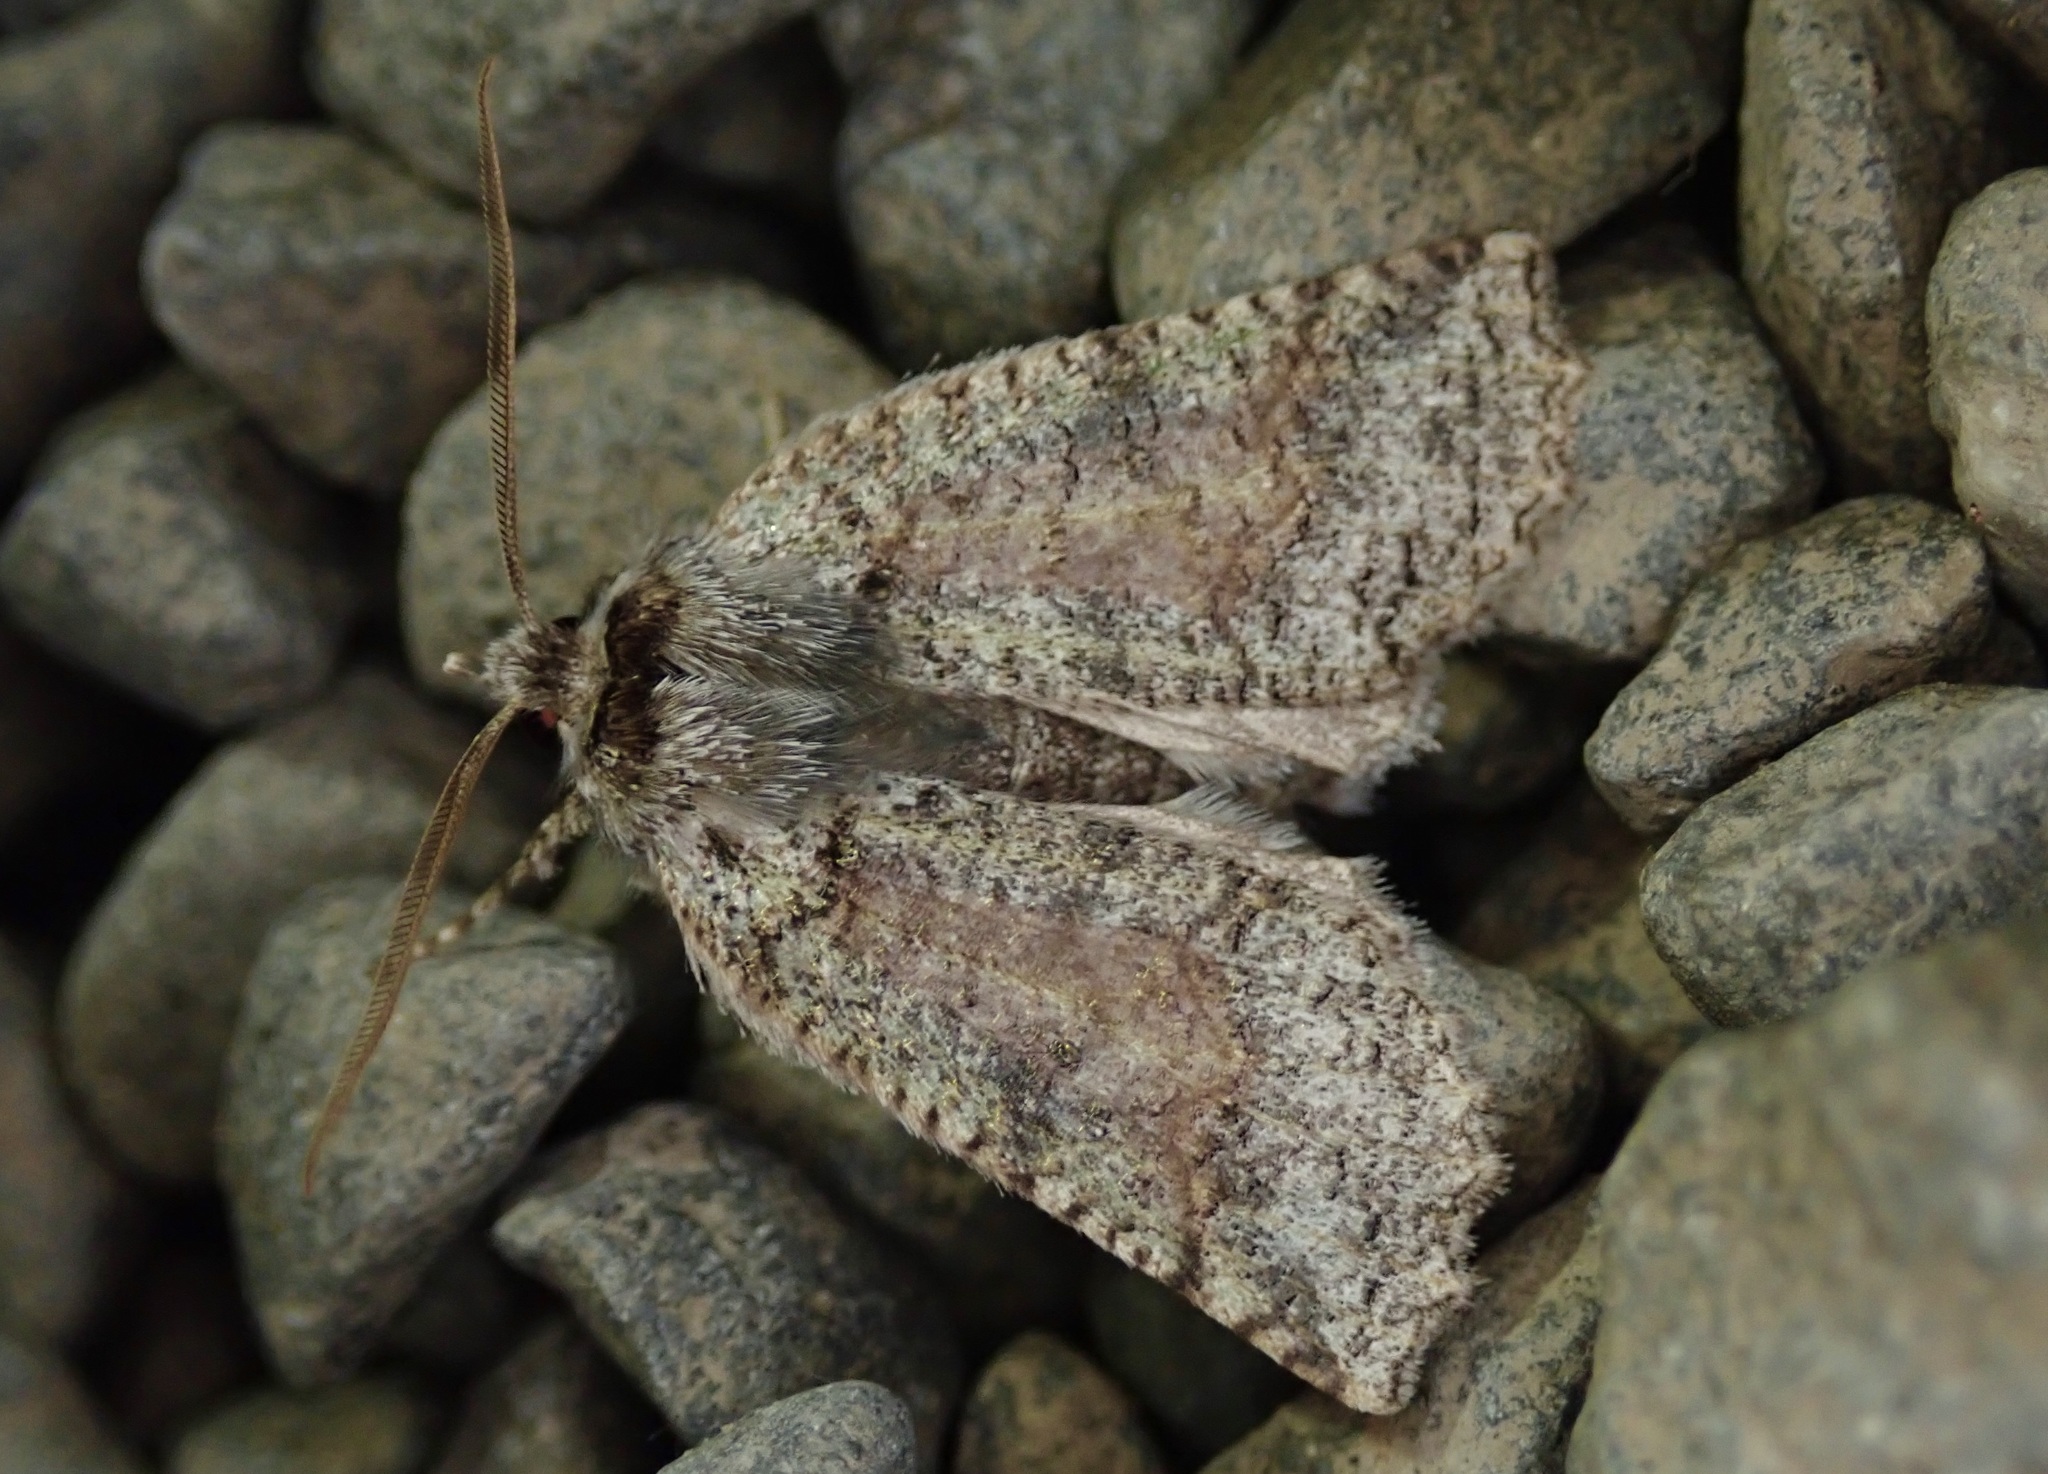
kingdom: Animalia
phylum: Arthropoda
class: Insecta
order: Lepidoptera
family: Geometridae
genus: Declana
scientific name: Declana floccosa
